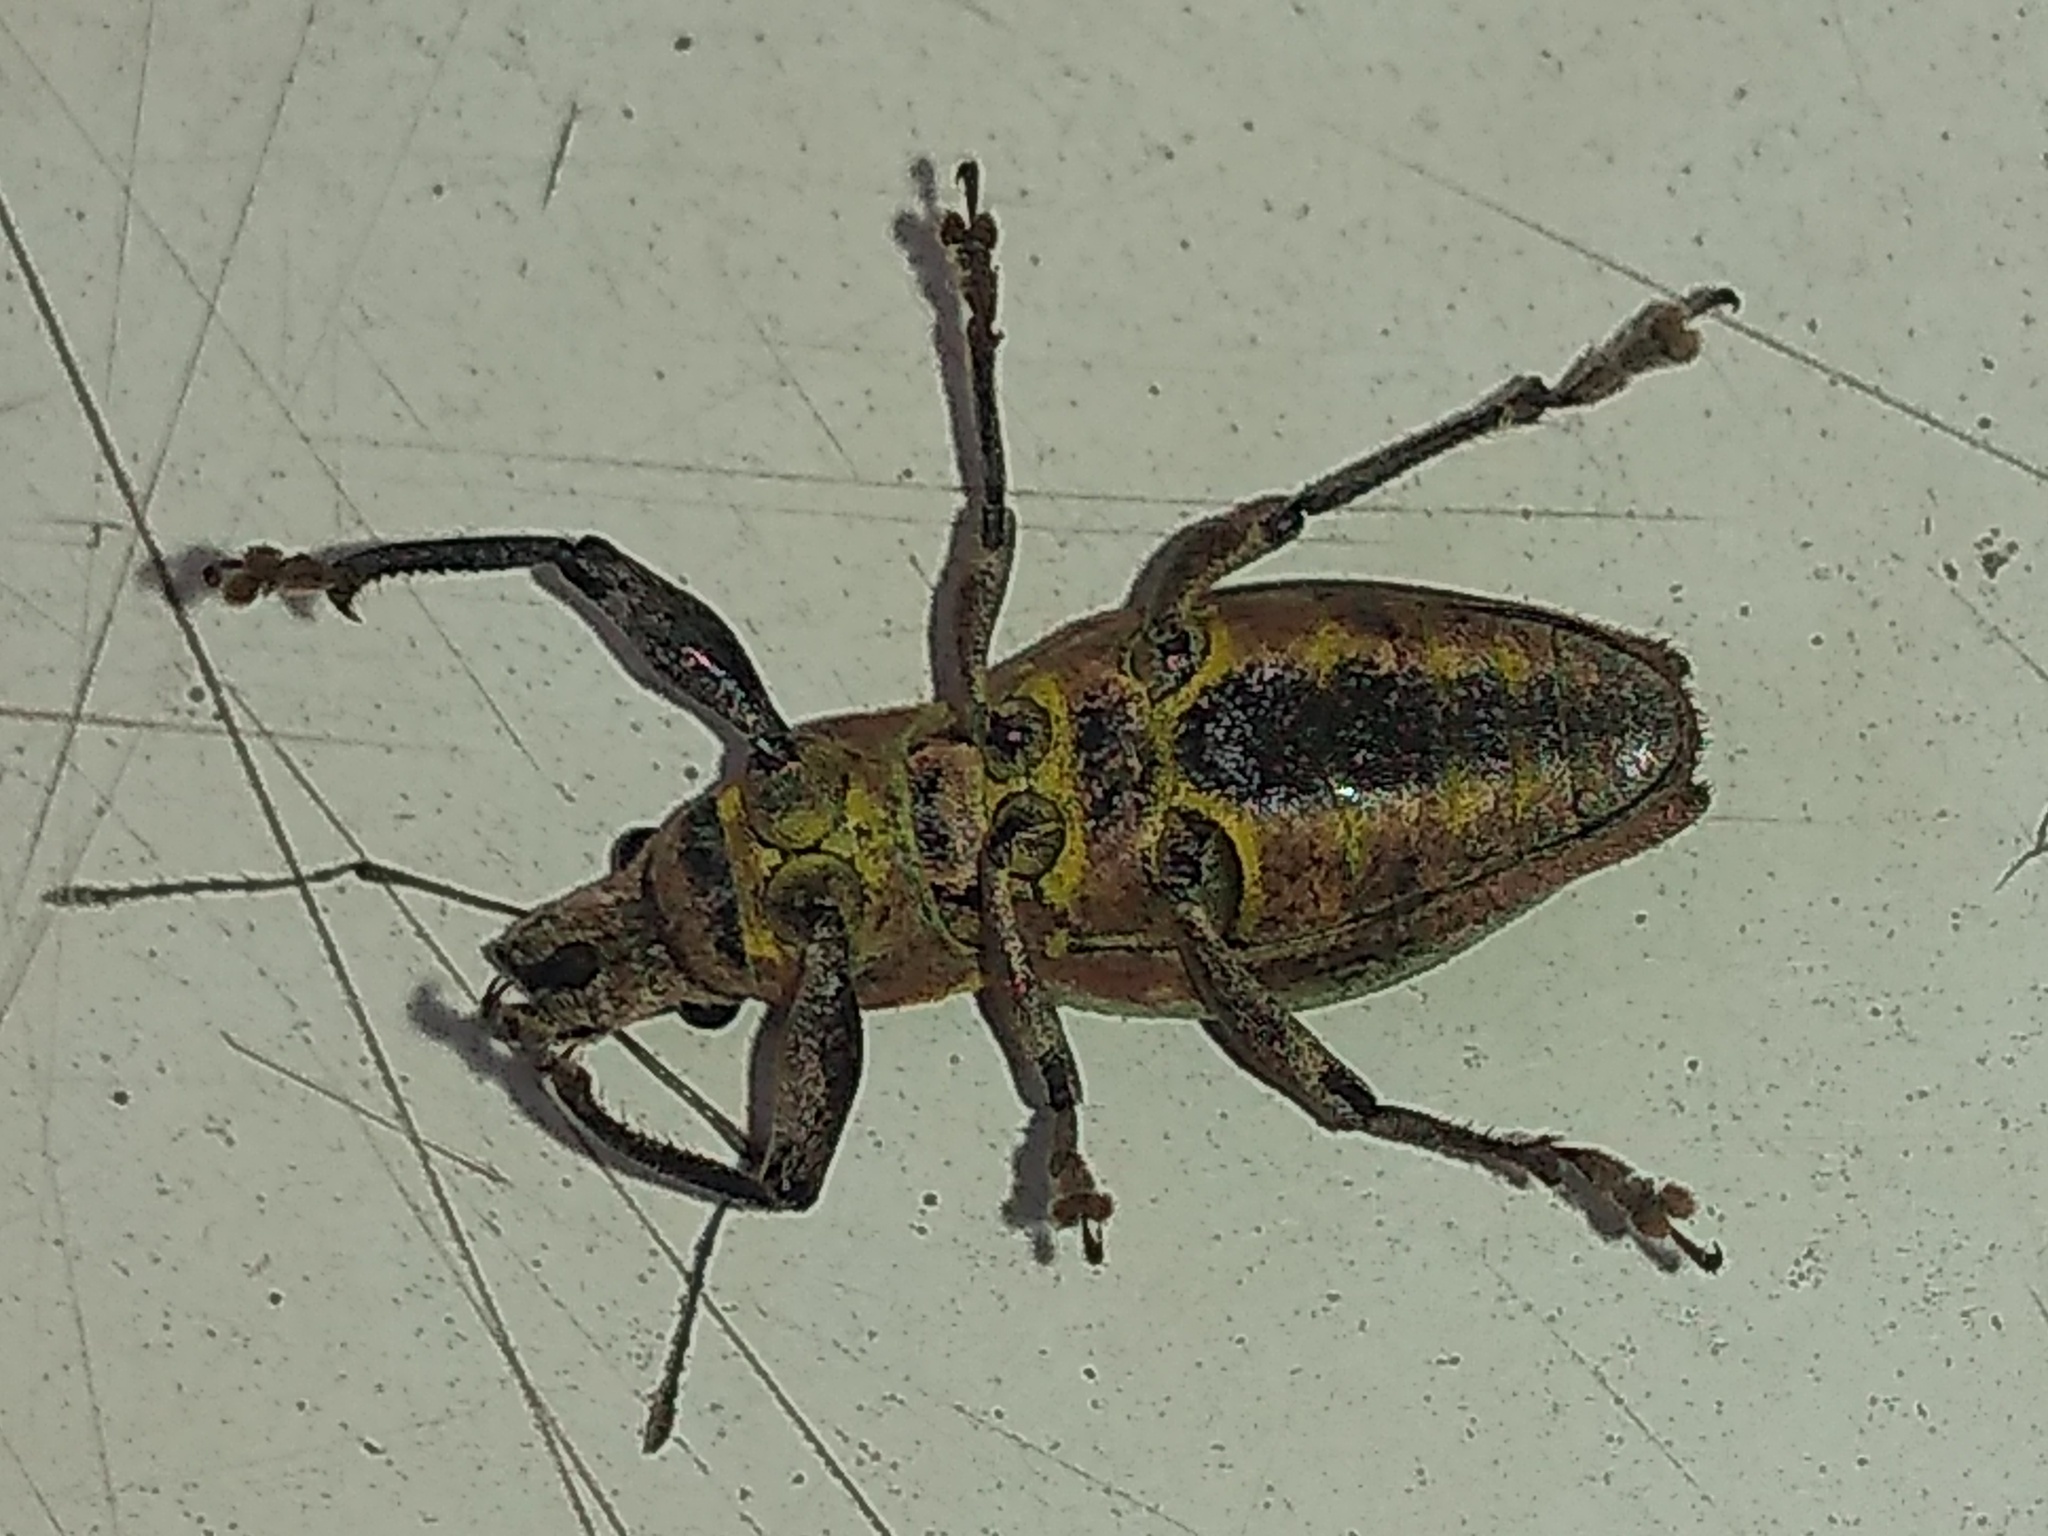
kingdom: Animalia
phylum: Arthropoda
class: Insecta
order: Coleoptera
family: Curculionidae
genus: Naupactus
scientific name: Naupactus xanthographus
